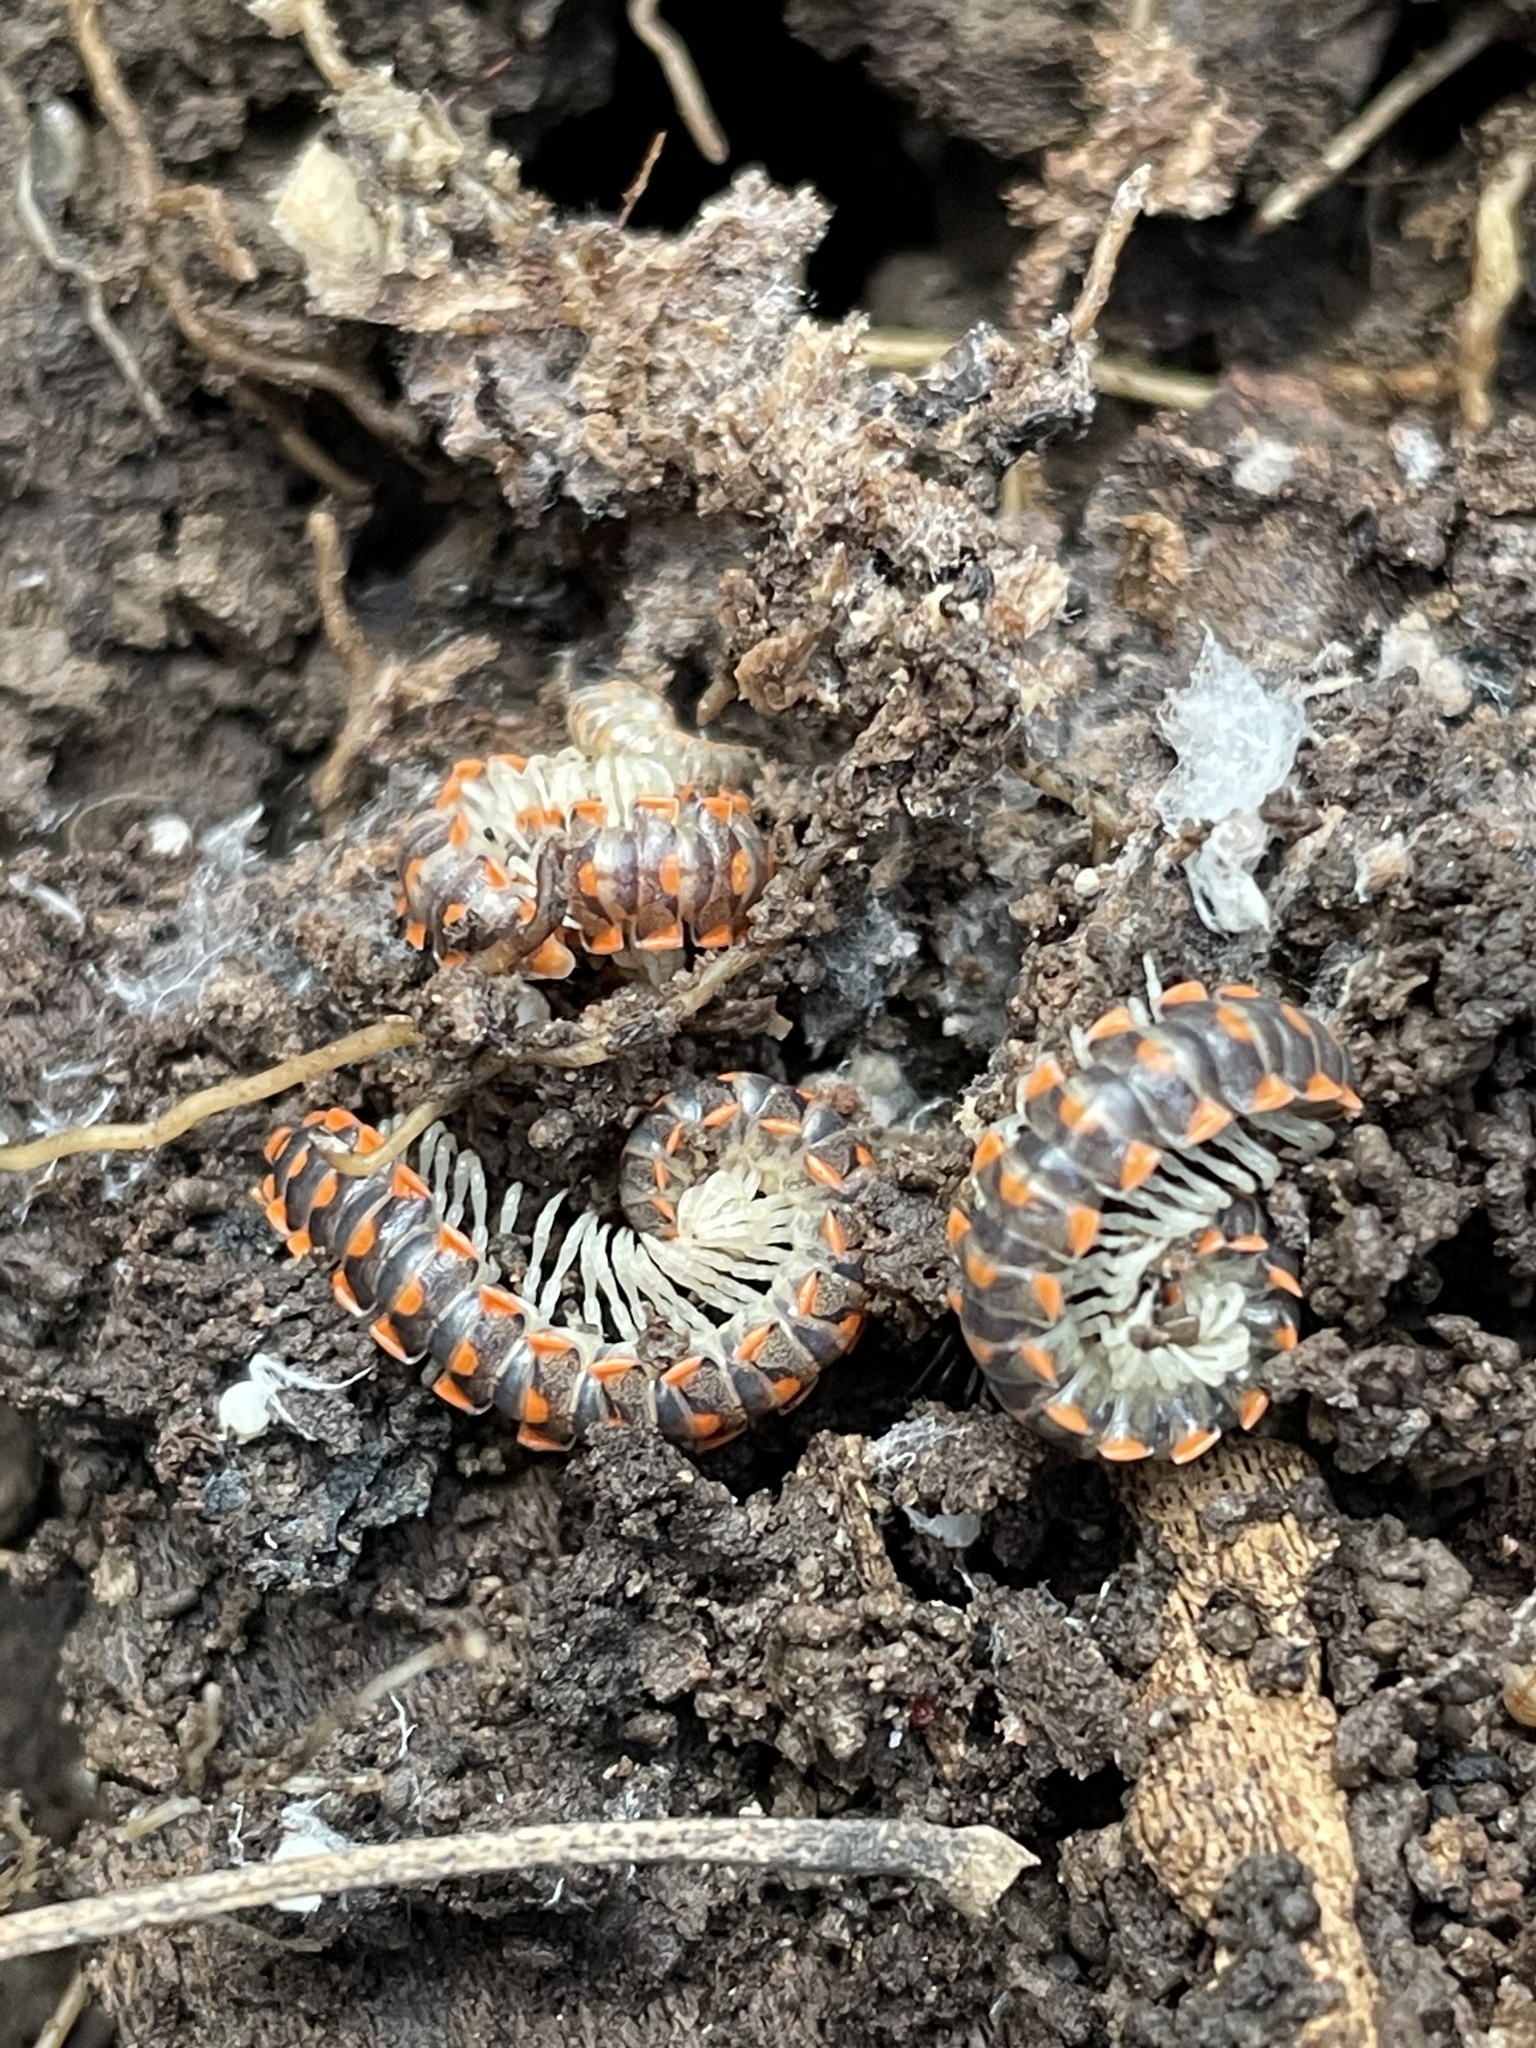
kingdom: Animalia
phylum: Arthropoda
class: Diplopoda
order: Polydesmida
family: Xystodesmidae
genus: Euryurus
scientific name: Euryurus leachii
